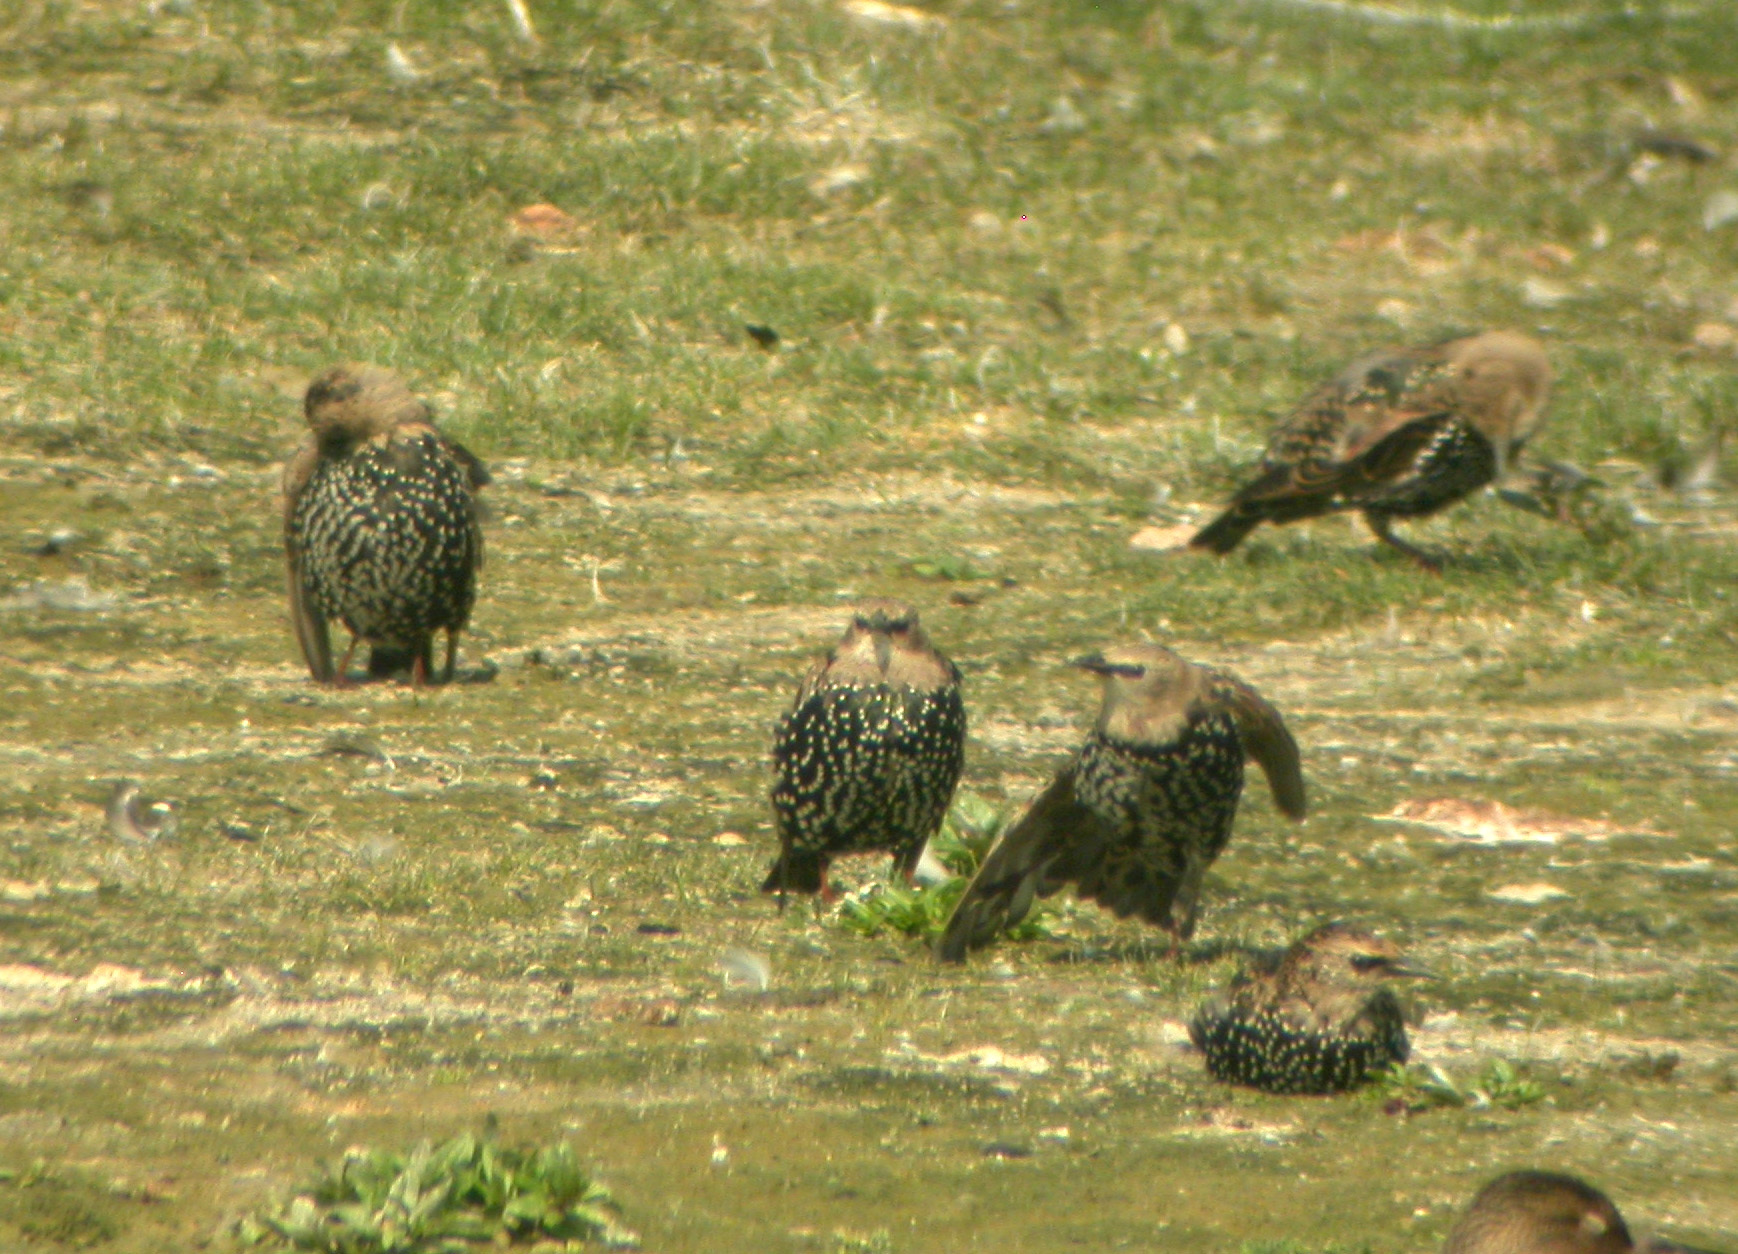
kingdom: Animalia
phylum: Chordata
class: Aves
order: Passeriformes
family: Sturnidae
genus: Sturnus
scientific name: Sturnus vulgaris
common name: Common starling
